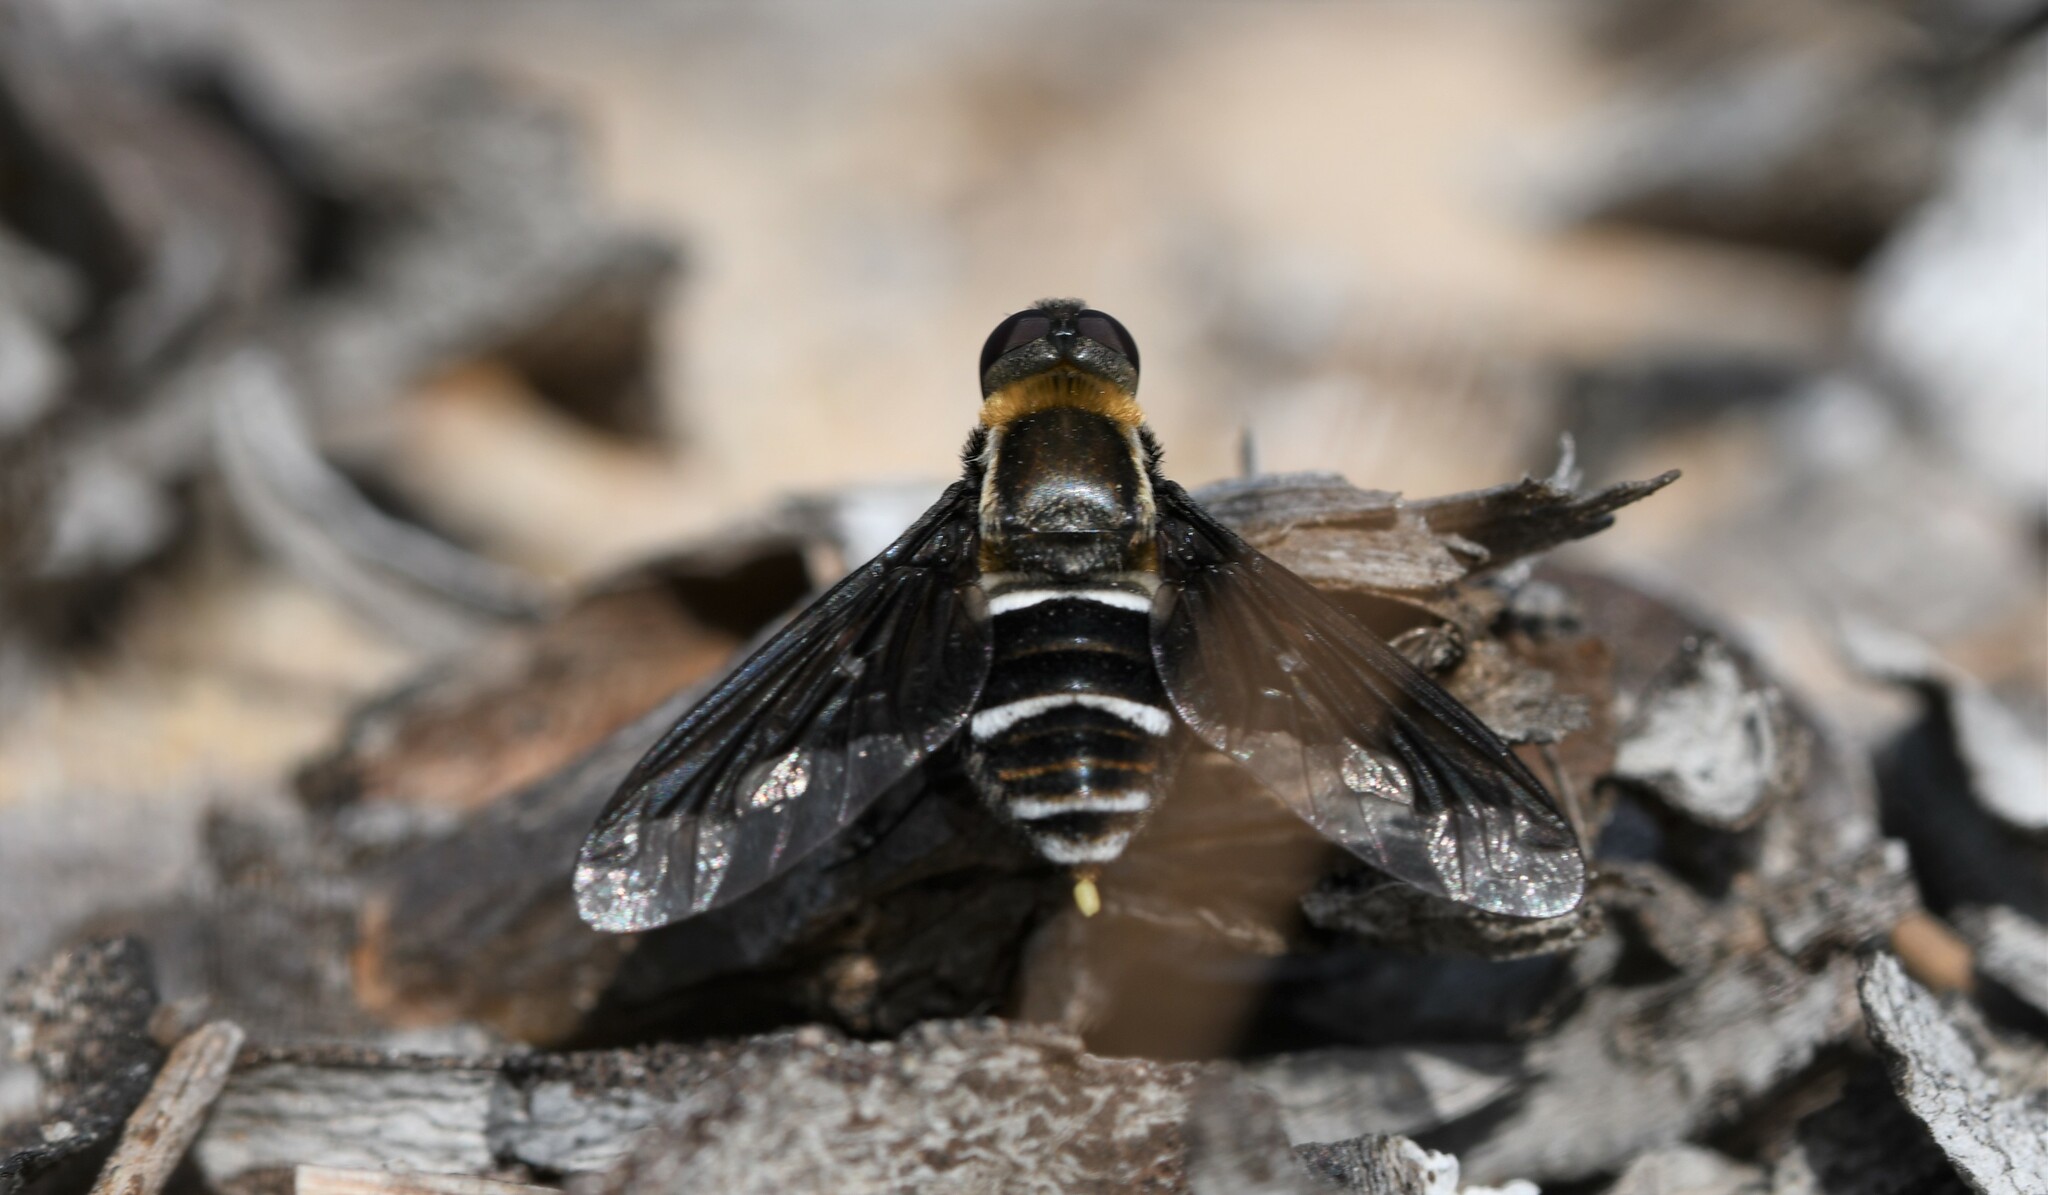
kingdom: Animalia
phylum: Arthropoda
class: Insecta
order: Diptera
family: Bombyliidae
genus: Hemipenthes
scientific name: Hemipenthes velutina
